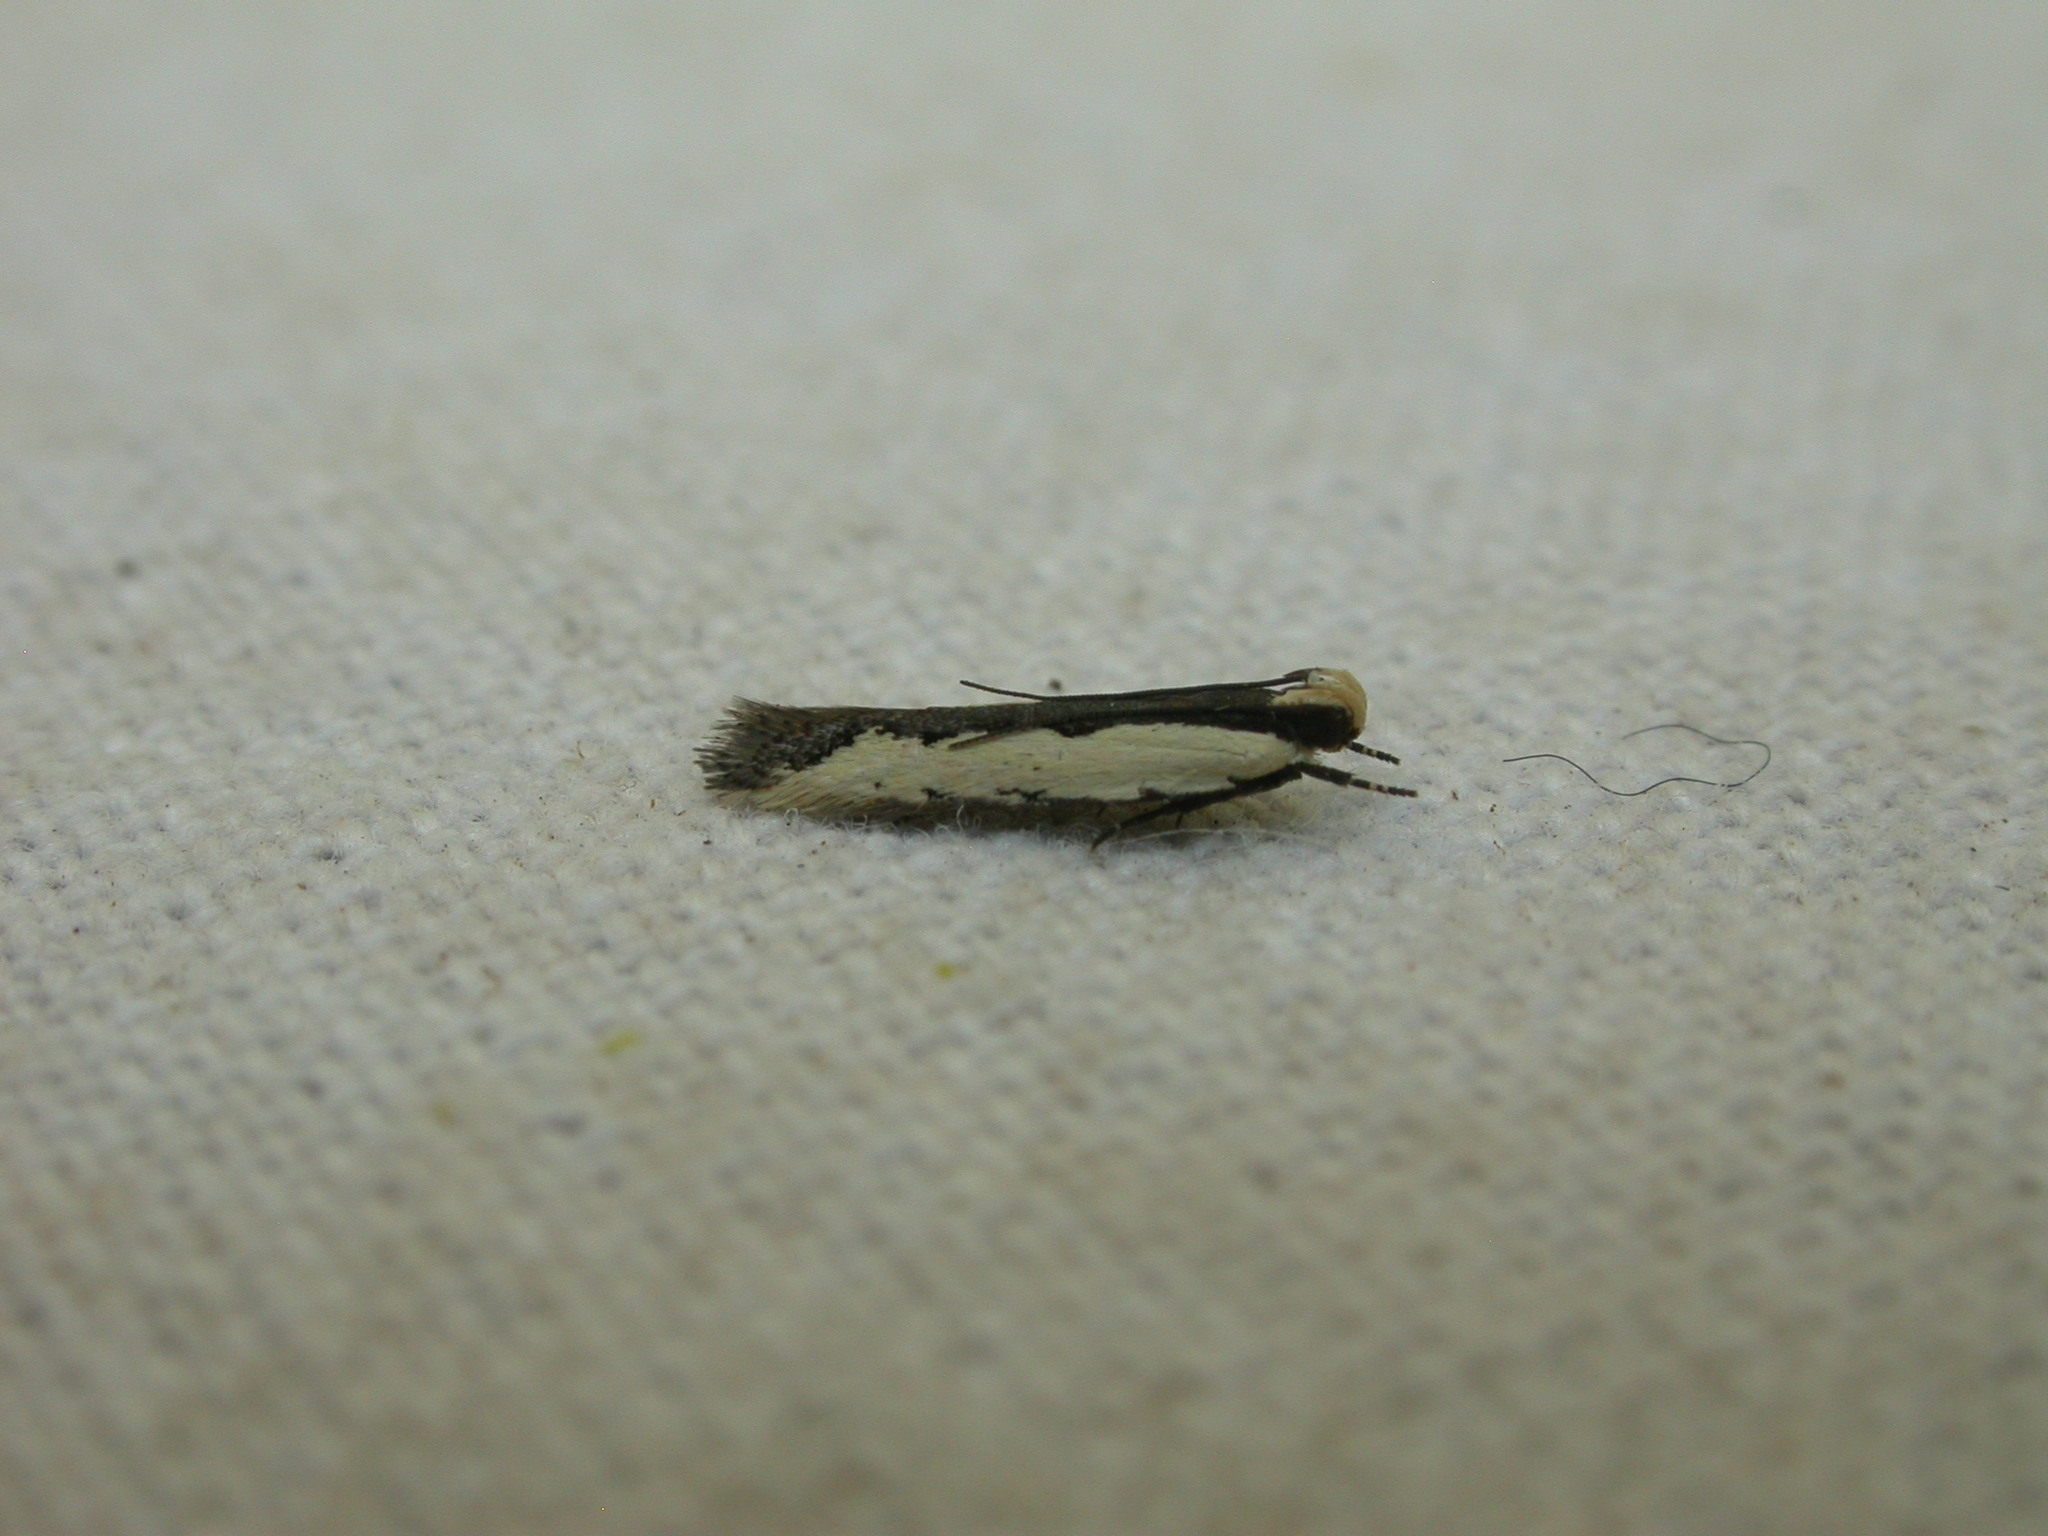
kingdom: Animalia
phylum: Arthropoda
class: Insecta
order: Lepidoptera
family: Gelechiidae
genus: Ardozyga
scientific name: Ardozyga catarrhacta
